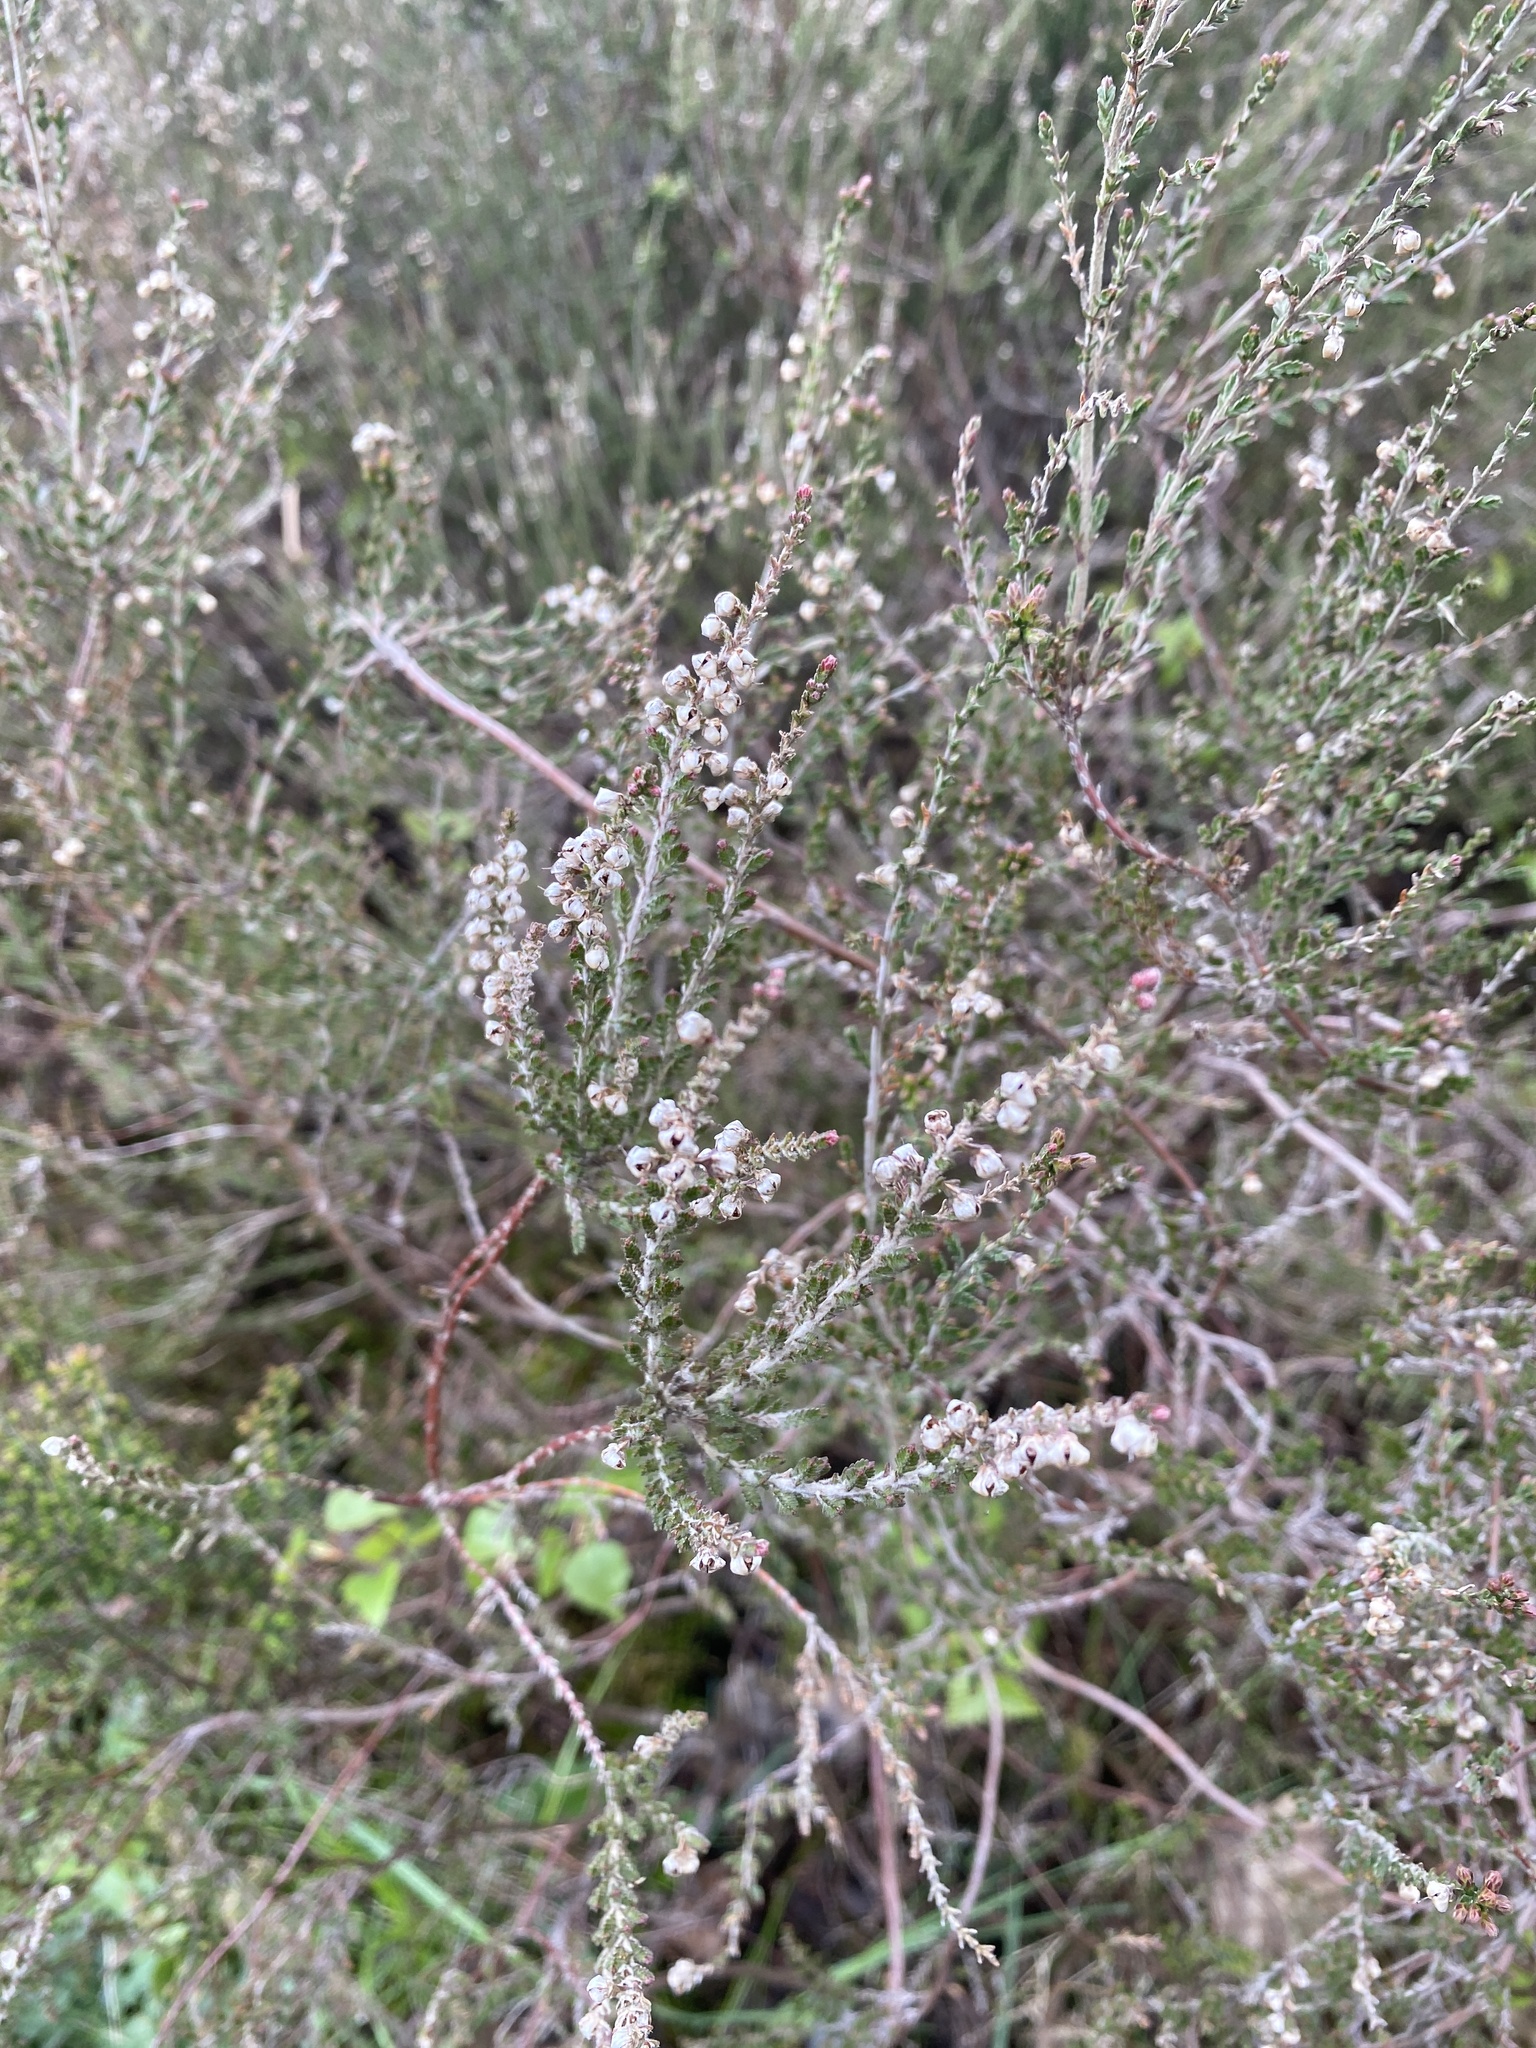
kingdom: Plantae
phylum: Tracheophyta
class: Magnoliopsida
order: Ericales
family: Ericaceae
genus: Calluna
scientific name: Calluna vulgaris
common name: Heather
